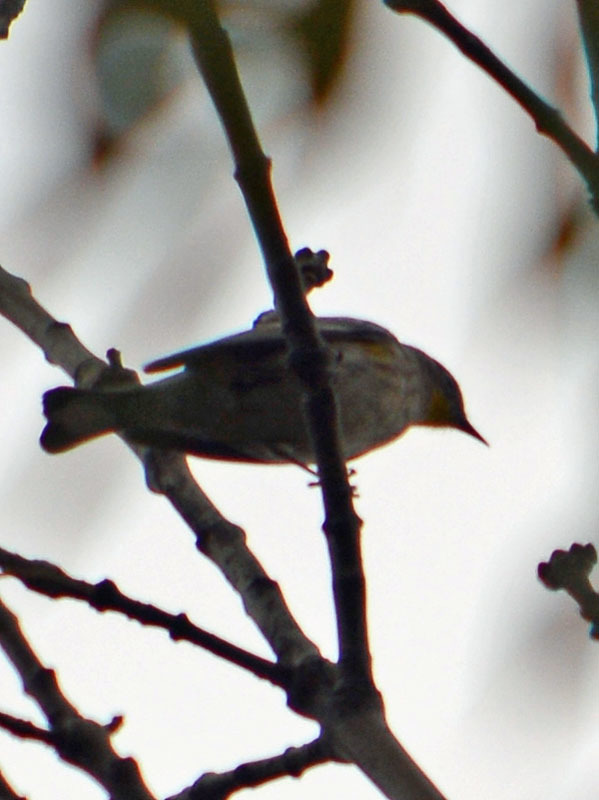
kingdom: Animalia
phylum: Chordata
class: Aves
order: Passeriformes
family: Parulidae
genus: Setophaga
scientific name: Setophaga coronata
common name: Myrtle warbler
